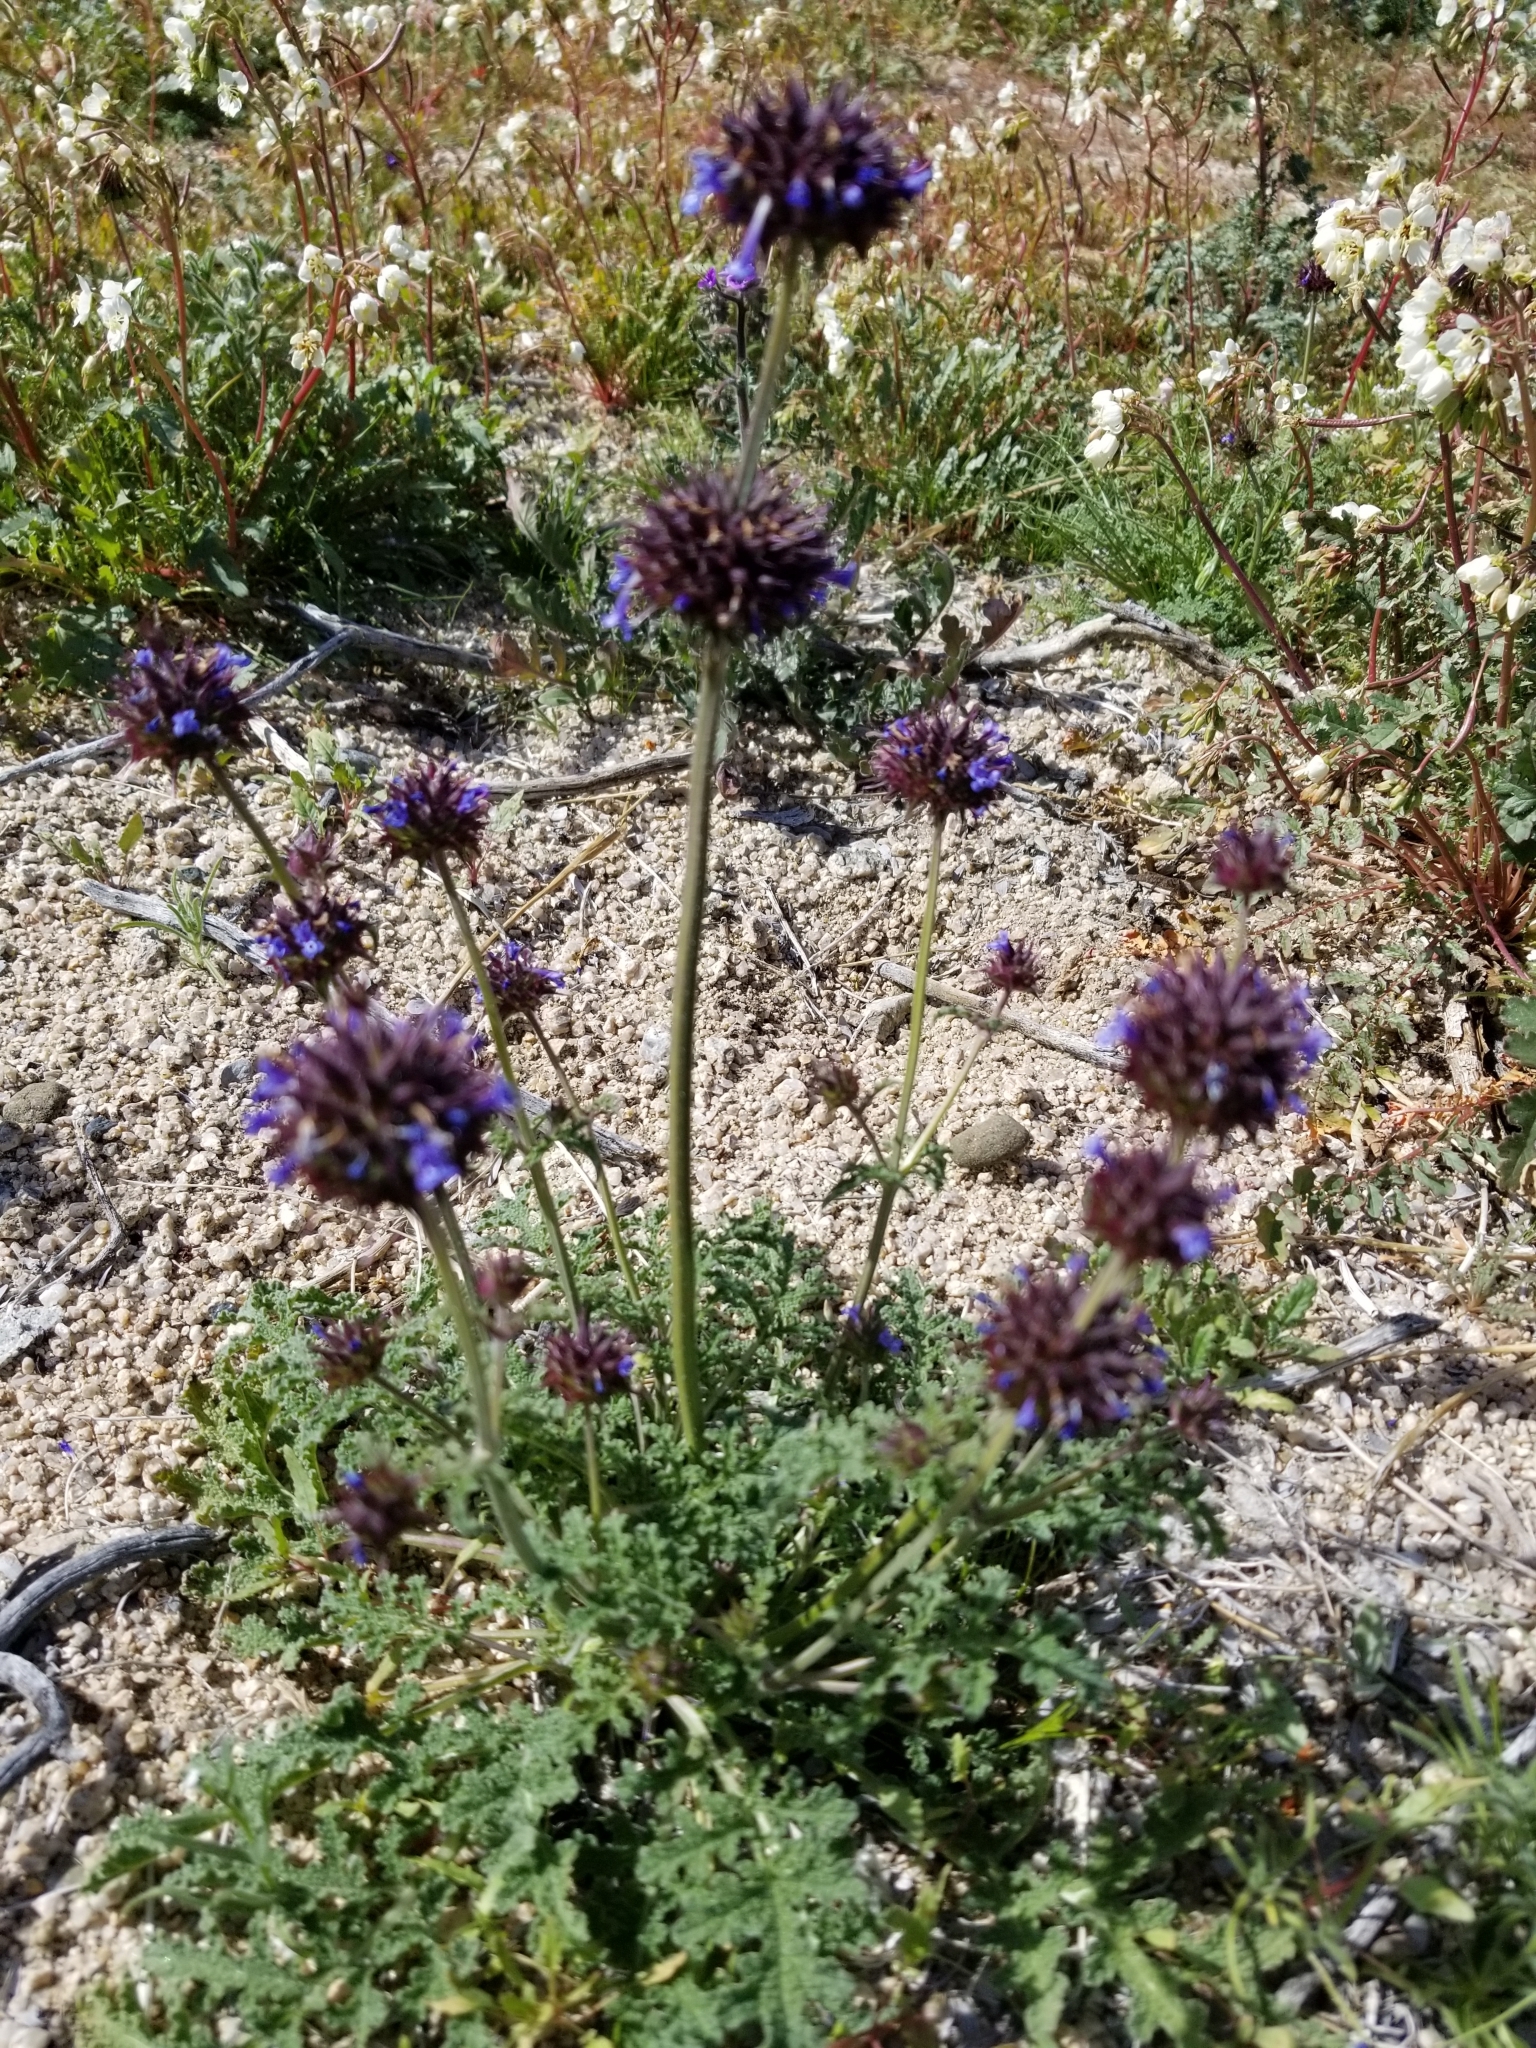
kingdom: Plantae
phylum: Tracheophyta
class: Magnoliopsida
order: Lamiales
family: Lamiaceae
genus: Salvia
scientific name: Salvia columbariae
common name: Chia
